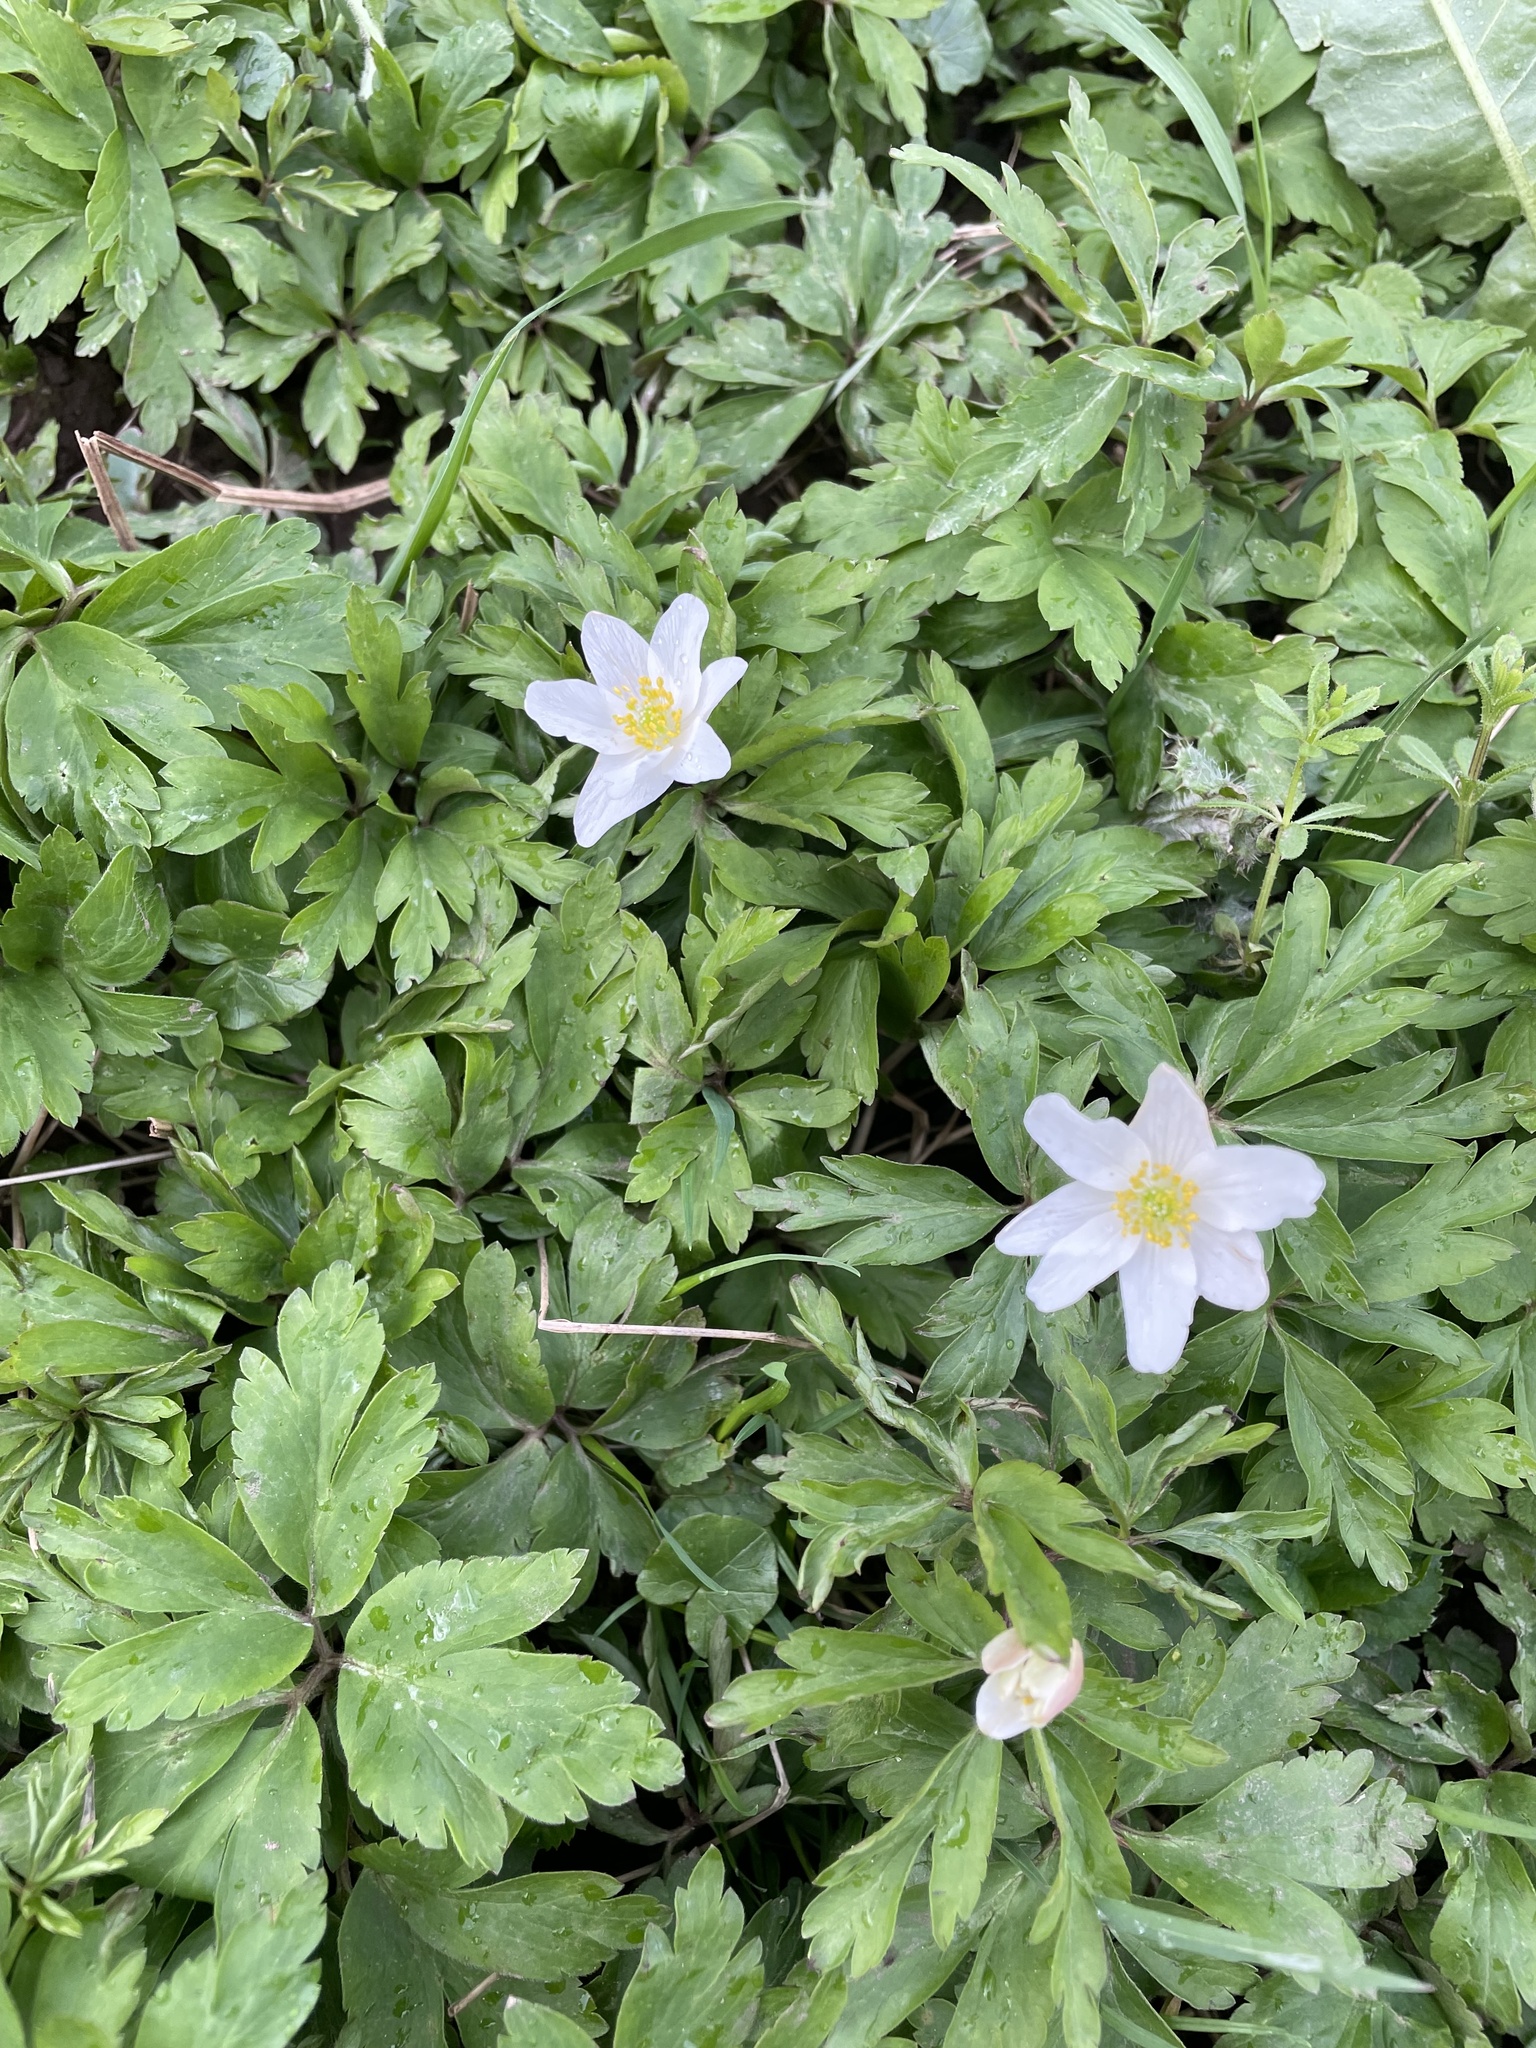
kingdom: Plantae
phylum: Tracheophyta
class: Magnoliopsida
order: Ranunculales
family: Ranunculaceae
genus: Anemone
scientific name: Anemone nemorosa
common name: Wood anemone
